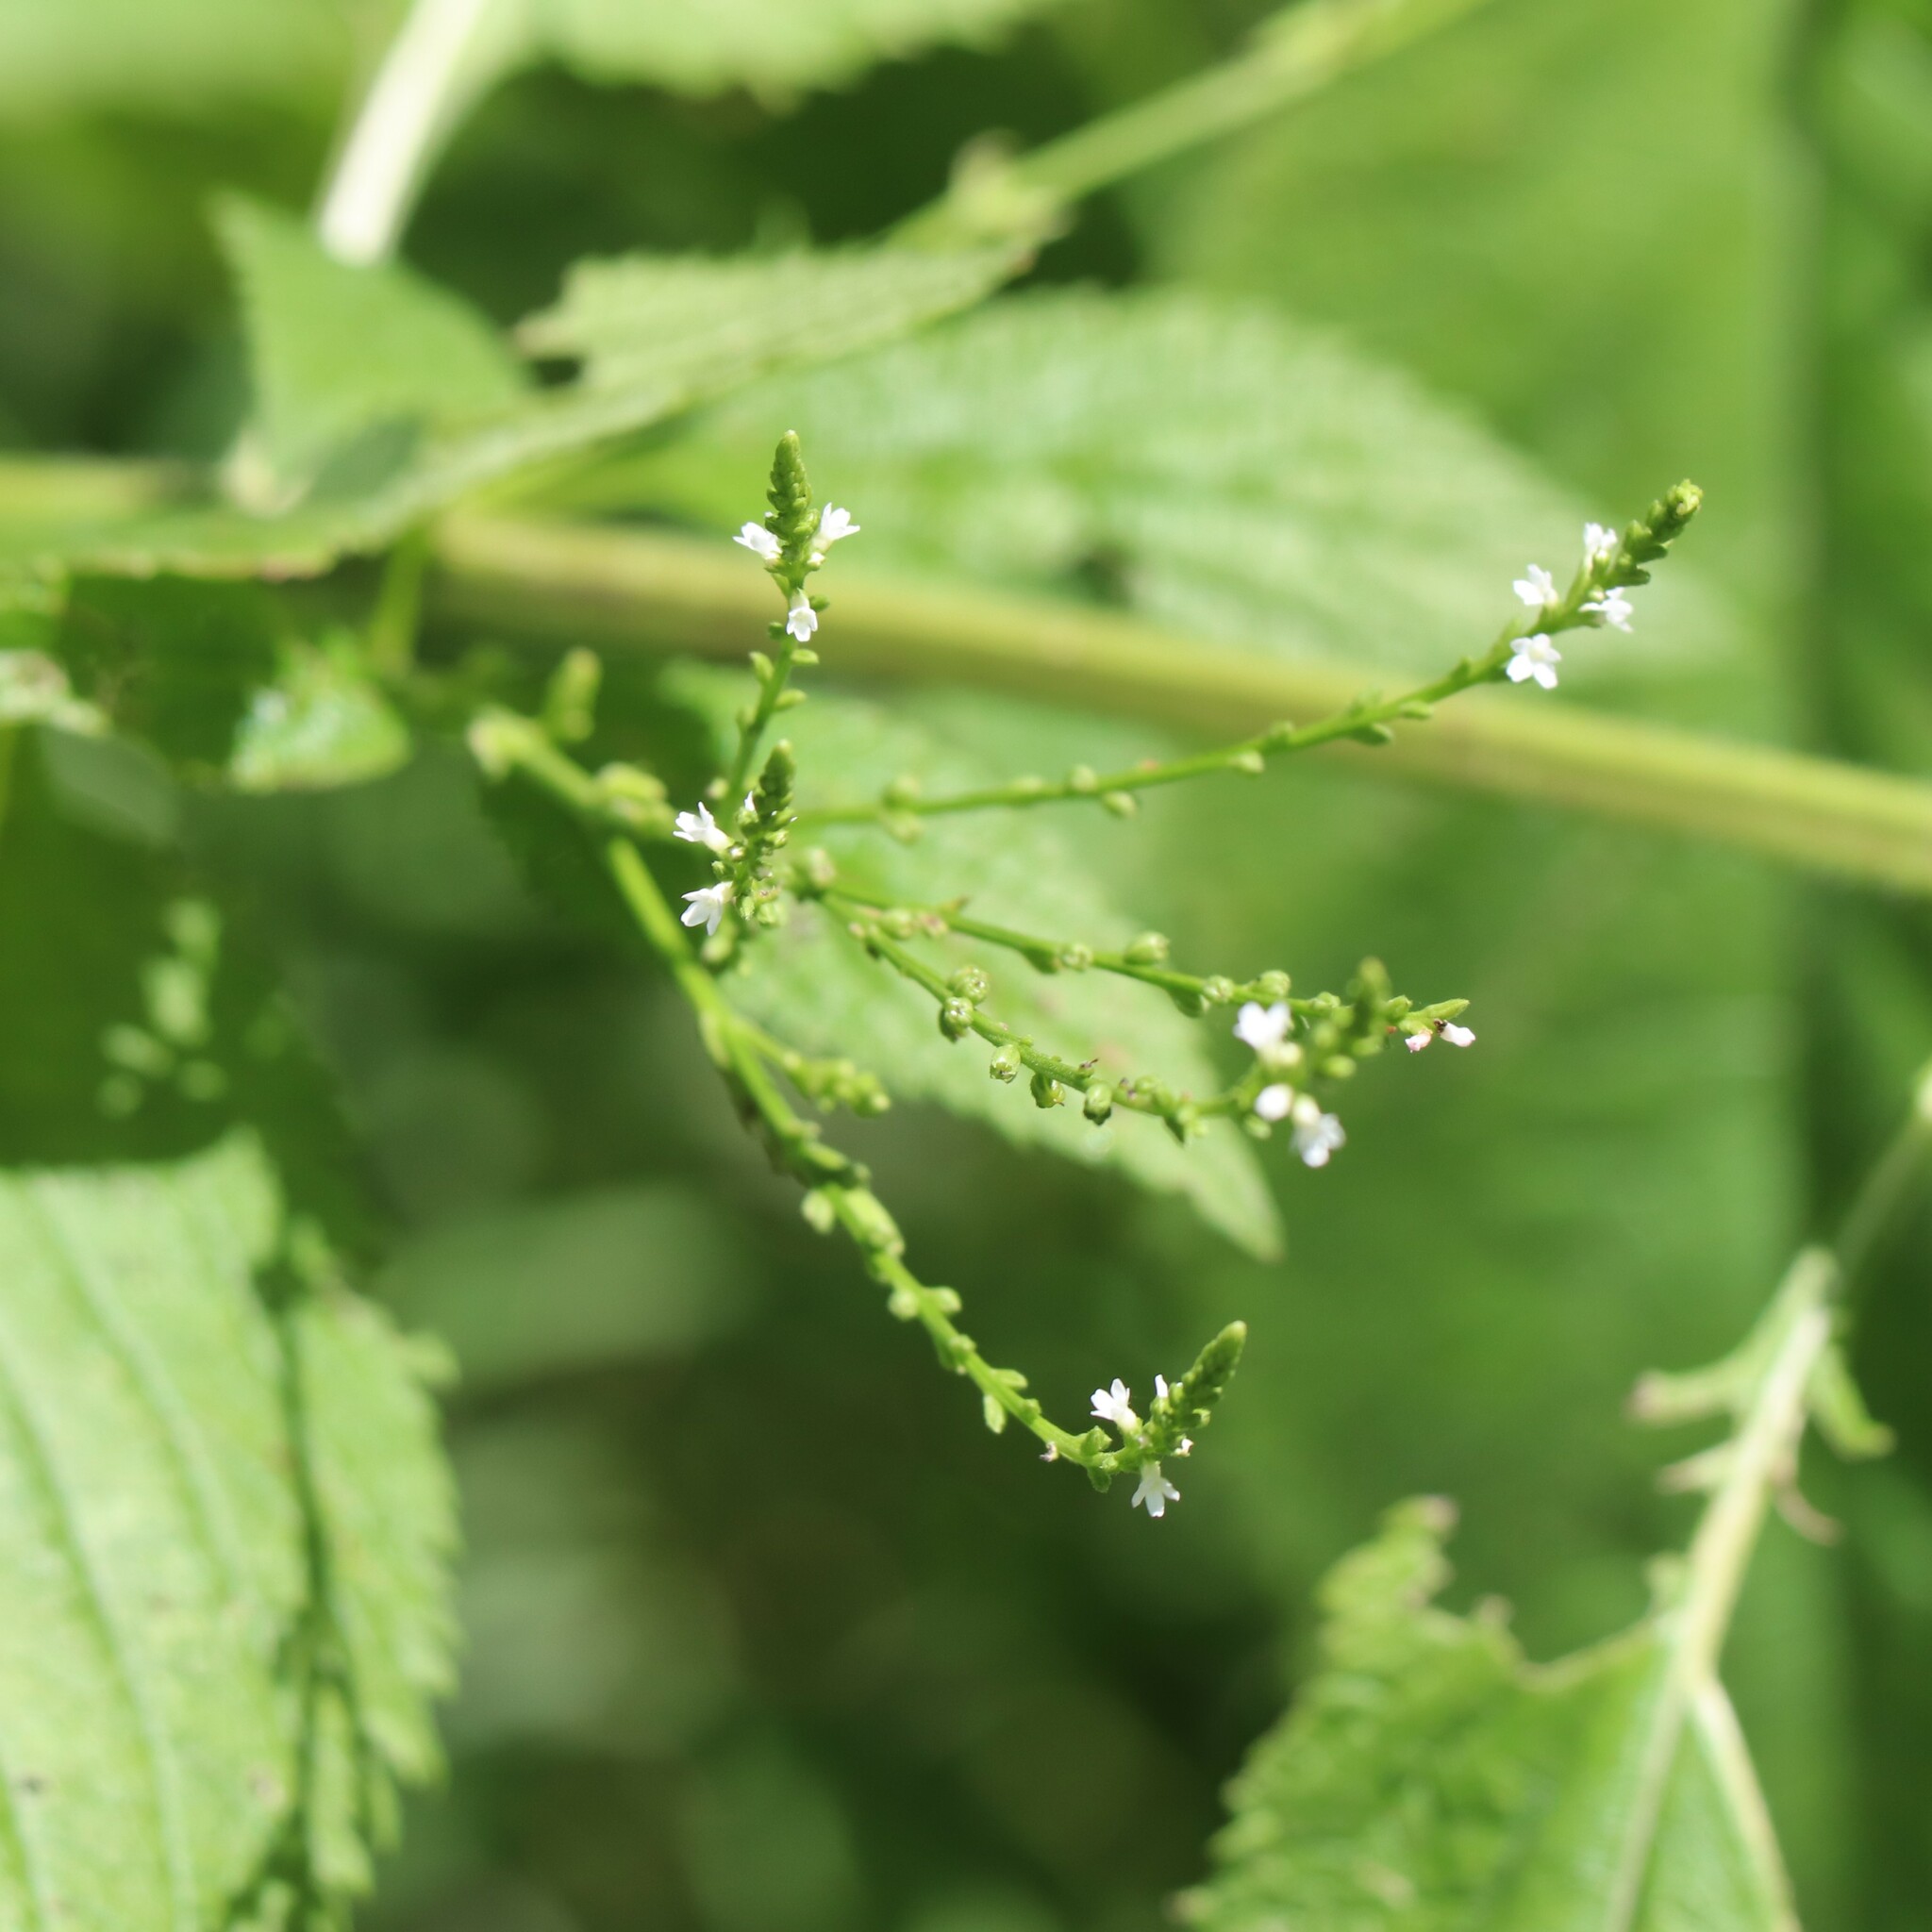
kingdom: Plantae
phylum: Tracheophyta
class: Magnoliopsida
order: Lamiales
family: Verbenaceae
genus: Verbena
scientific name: Verbena urticifolia
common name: Nettle-leaved vervain
